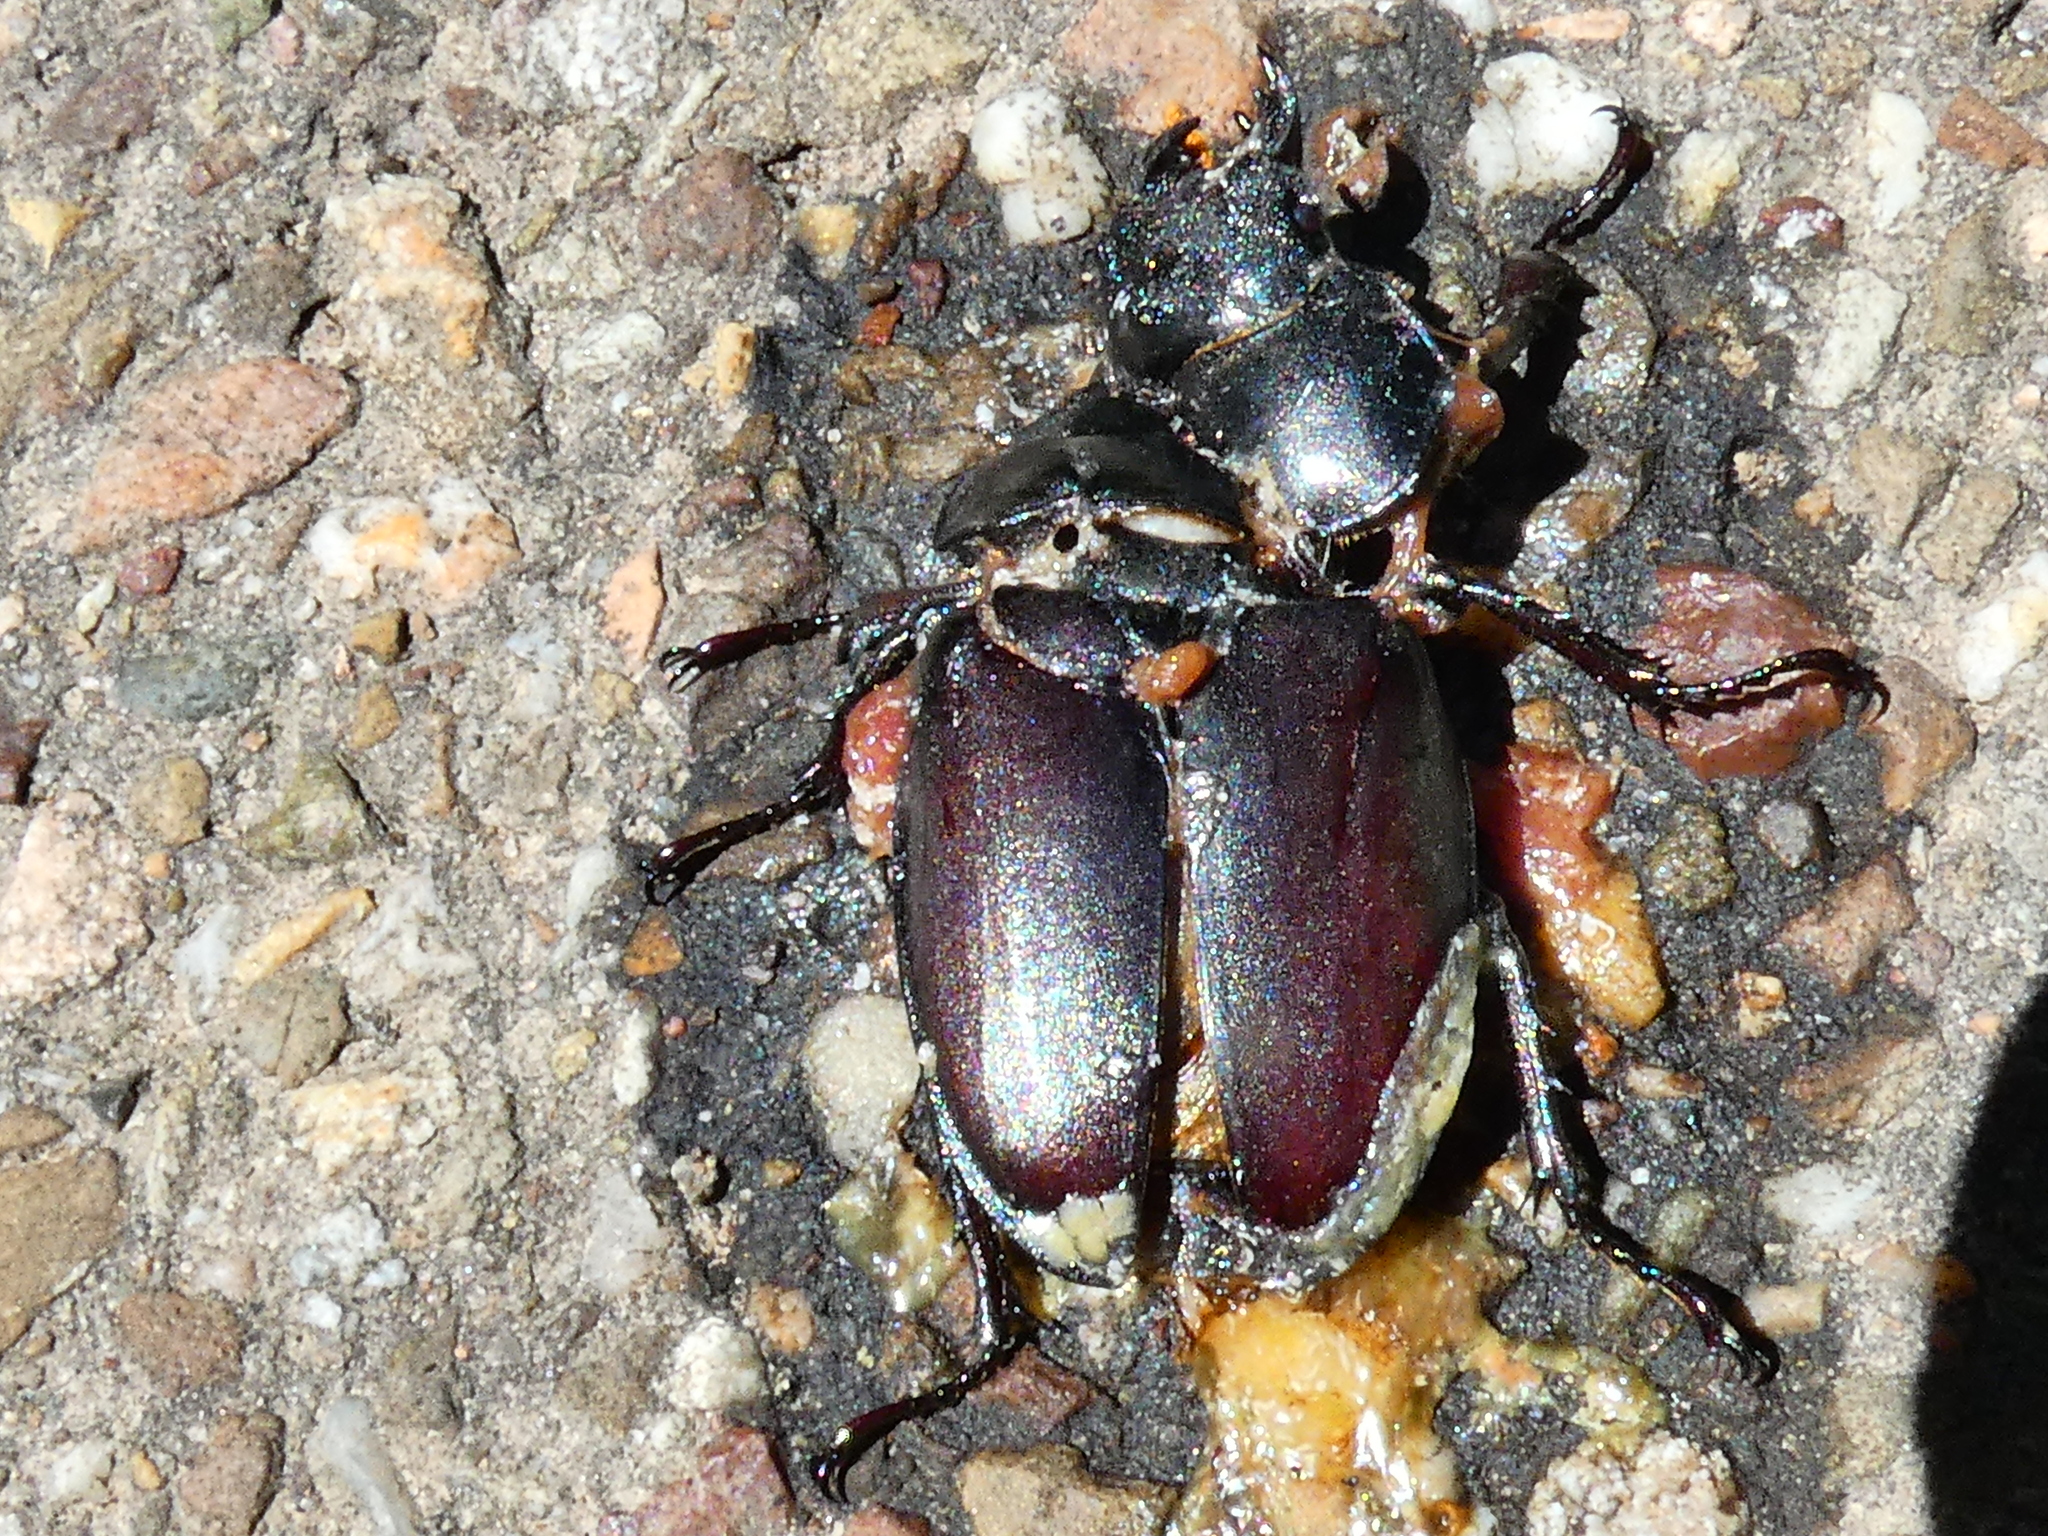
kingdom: Animalia
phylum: Arthropoda
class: Insecta
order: Coleoptera
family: Lucanidae
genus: Lucanus
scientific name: Lucanus cervus
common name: Stag beetle
